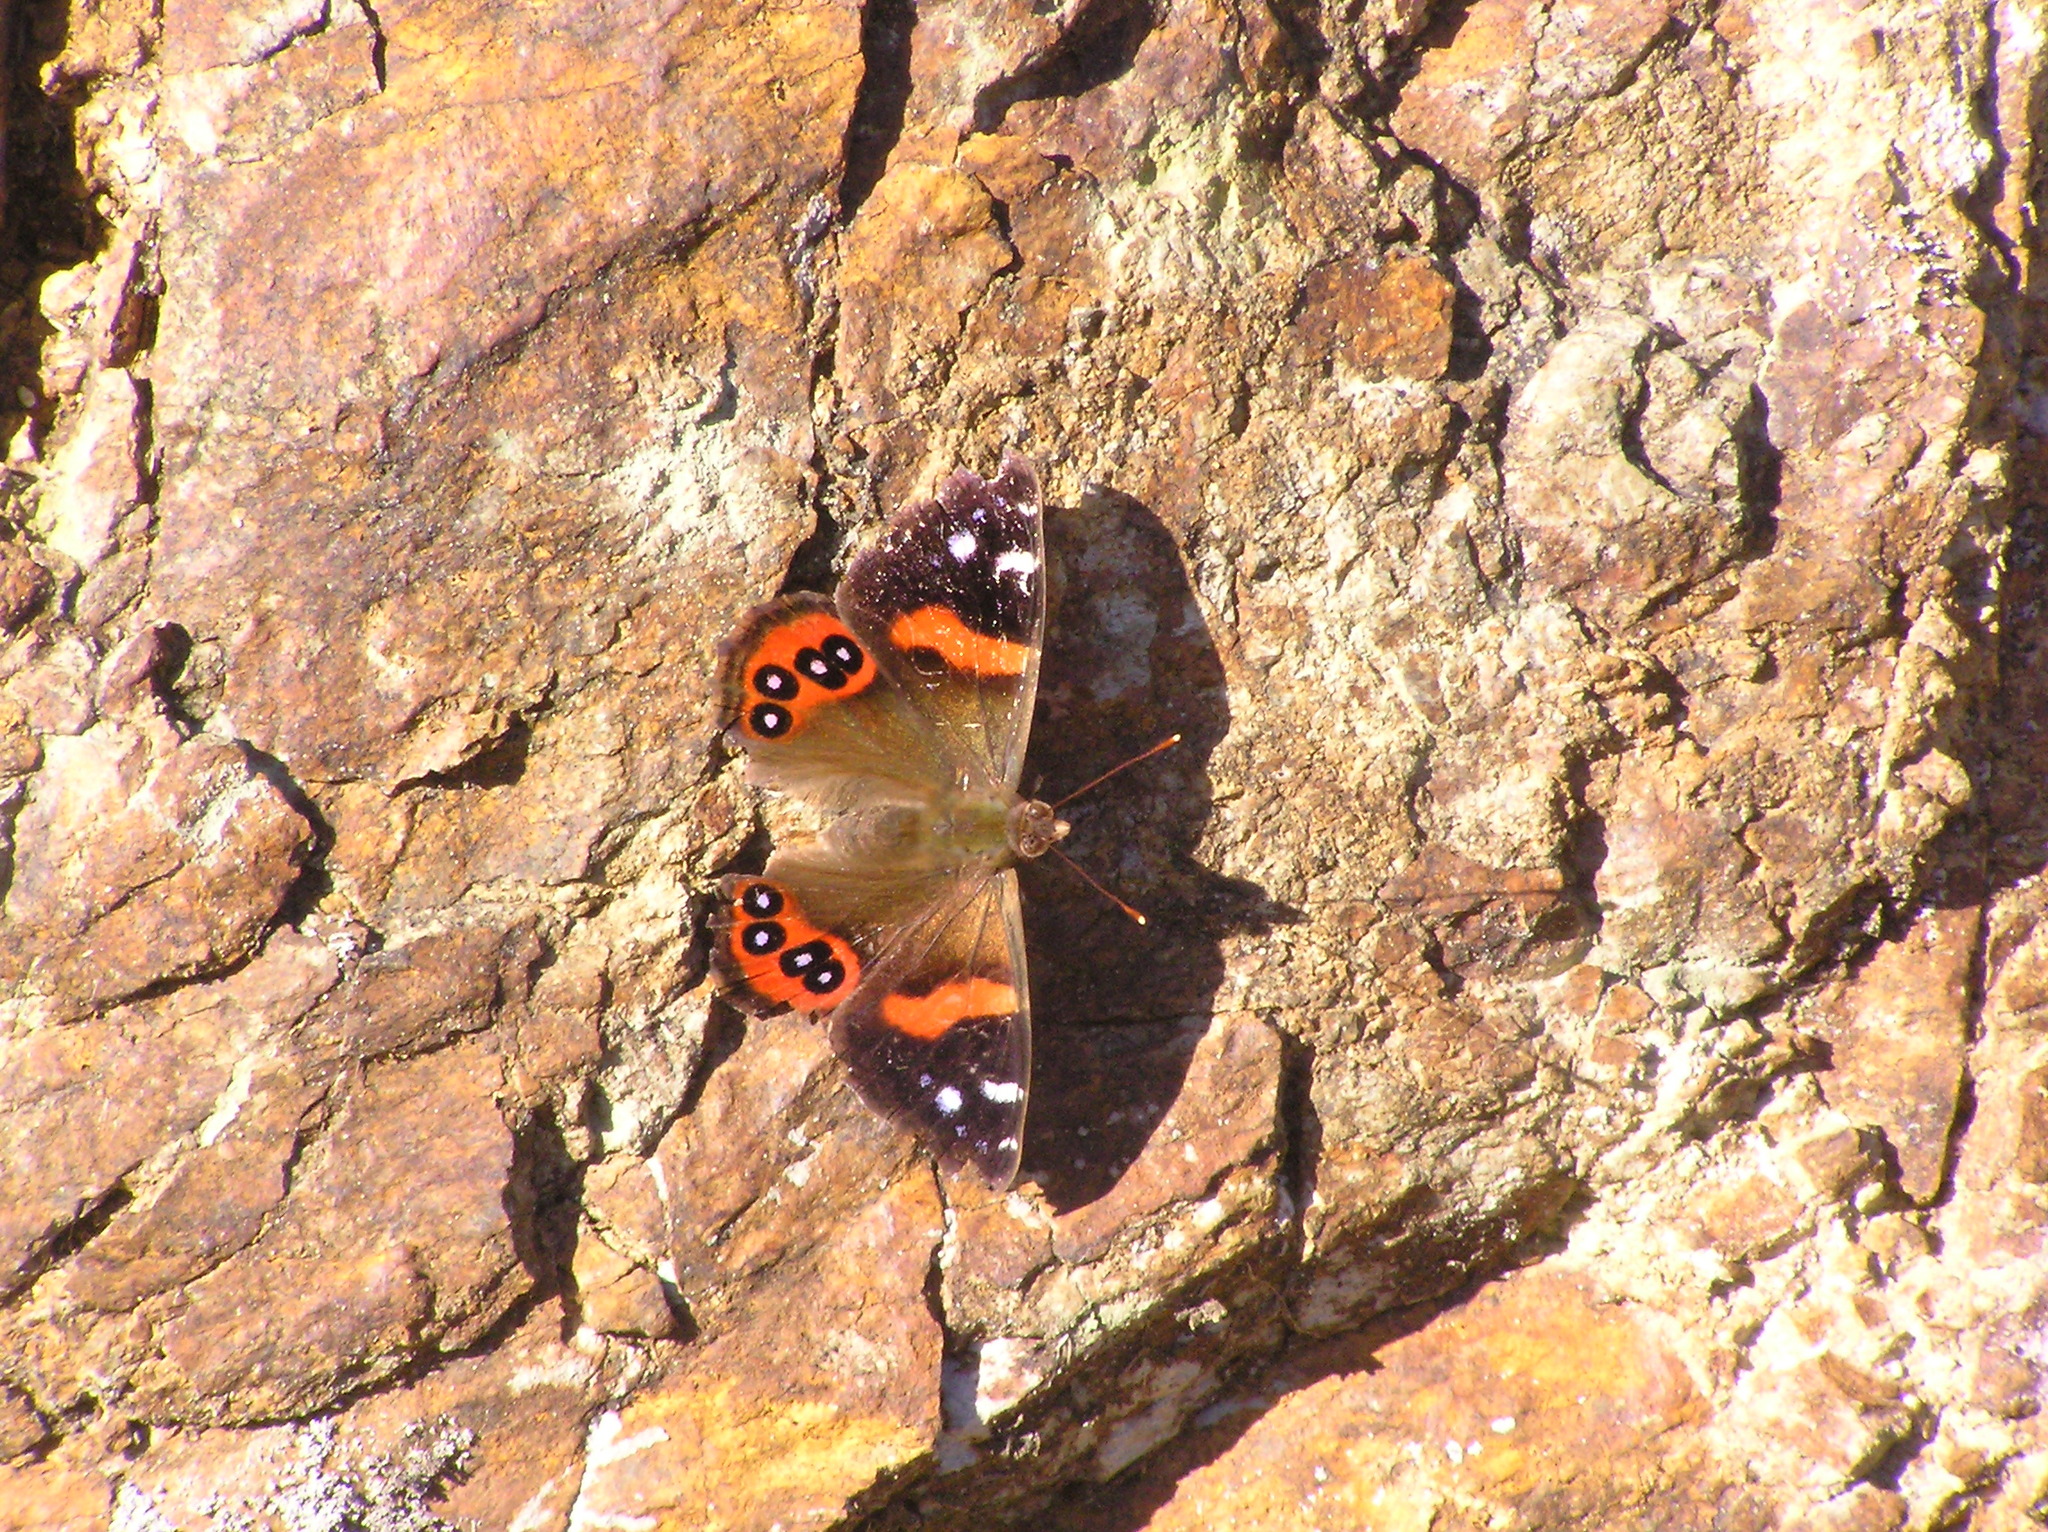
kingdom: Animalia
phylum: Arthropoda
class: Insecta
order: Lepidoptera
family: Nymphalidae
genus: Vanessa
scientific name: Vanessa gonerilla
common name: New zealand red admiral
